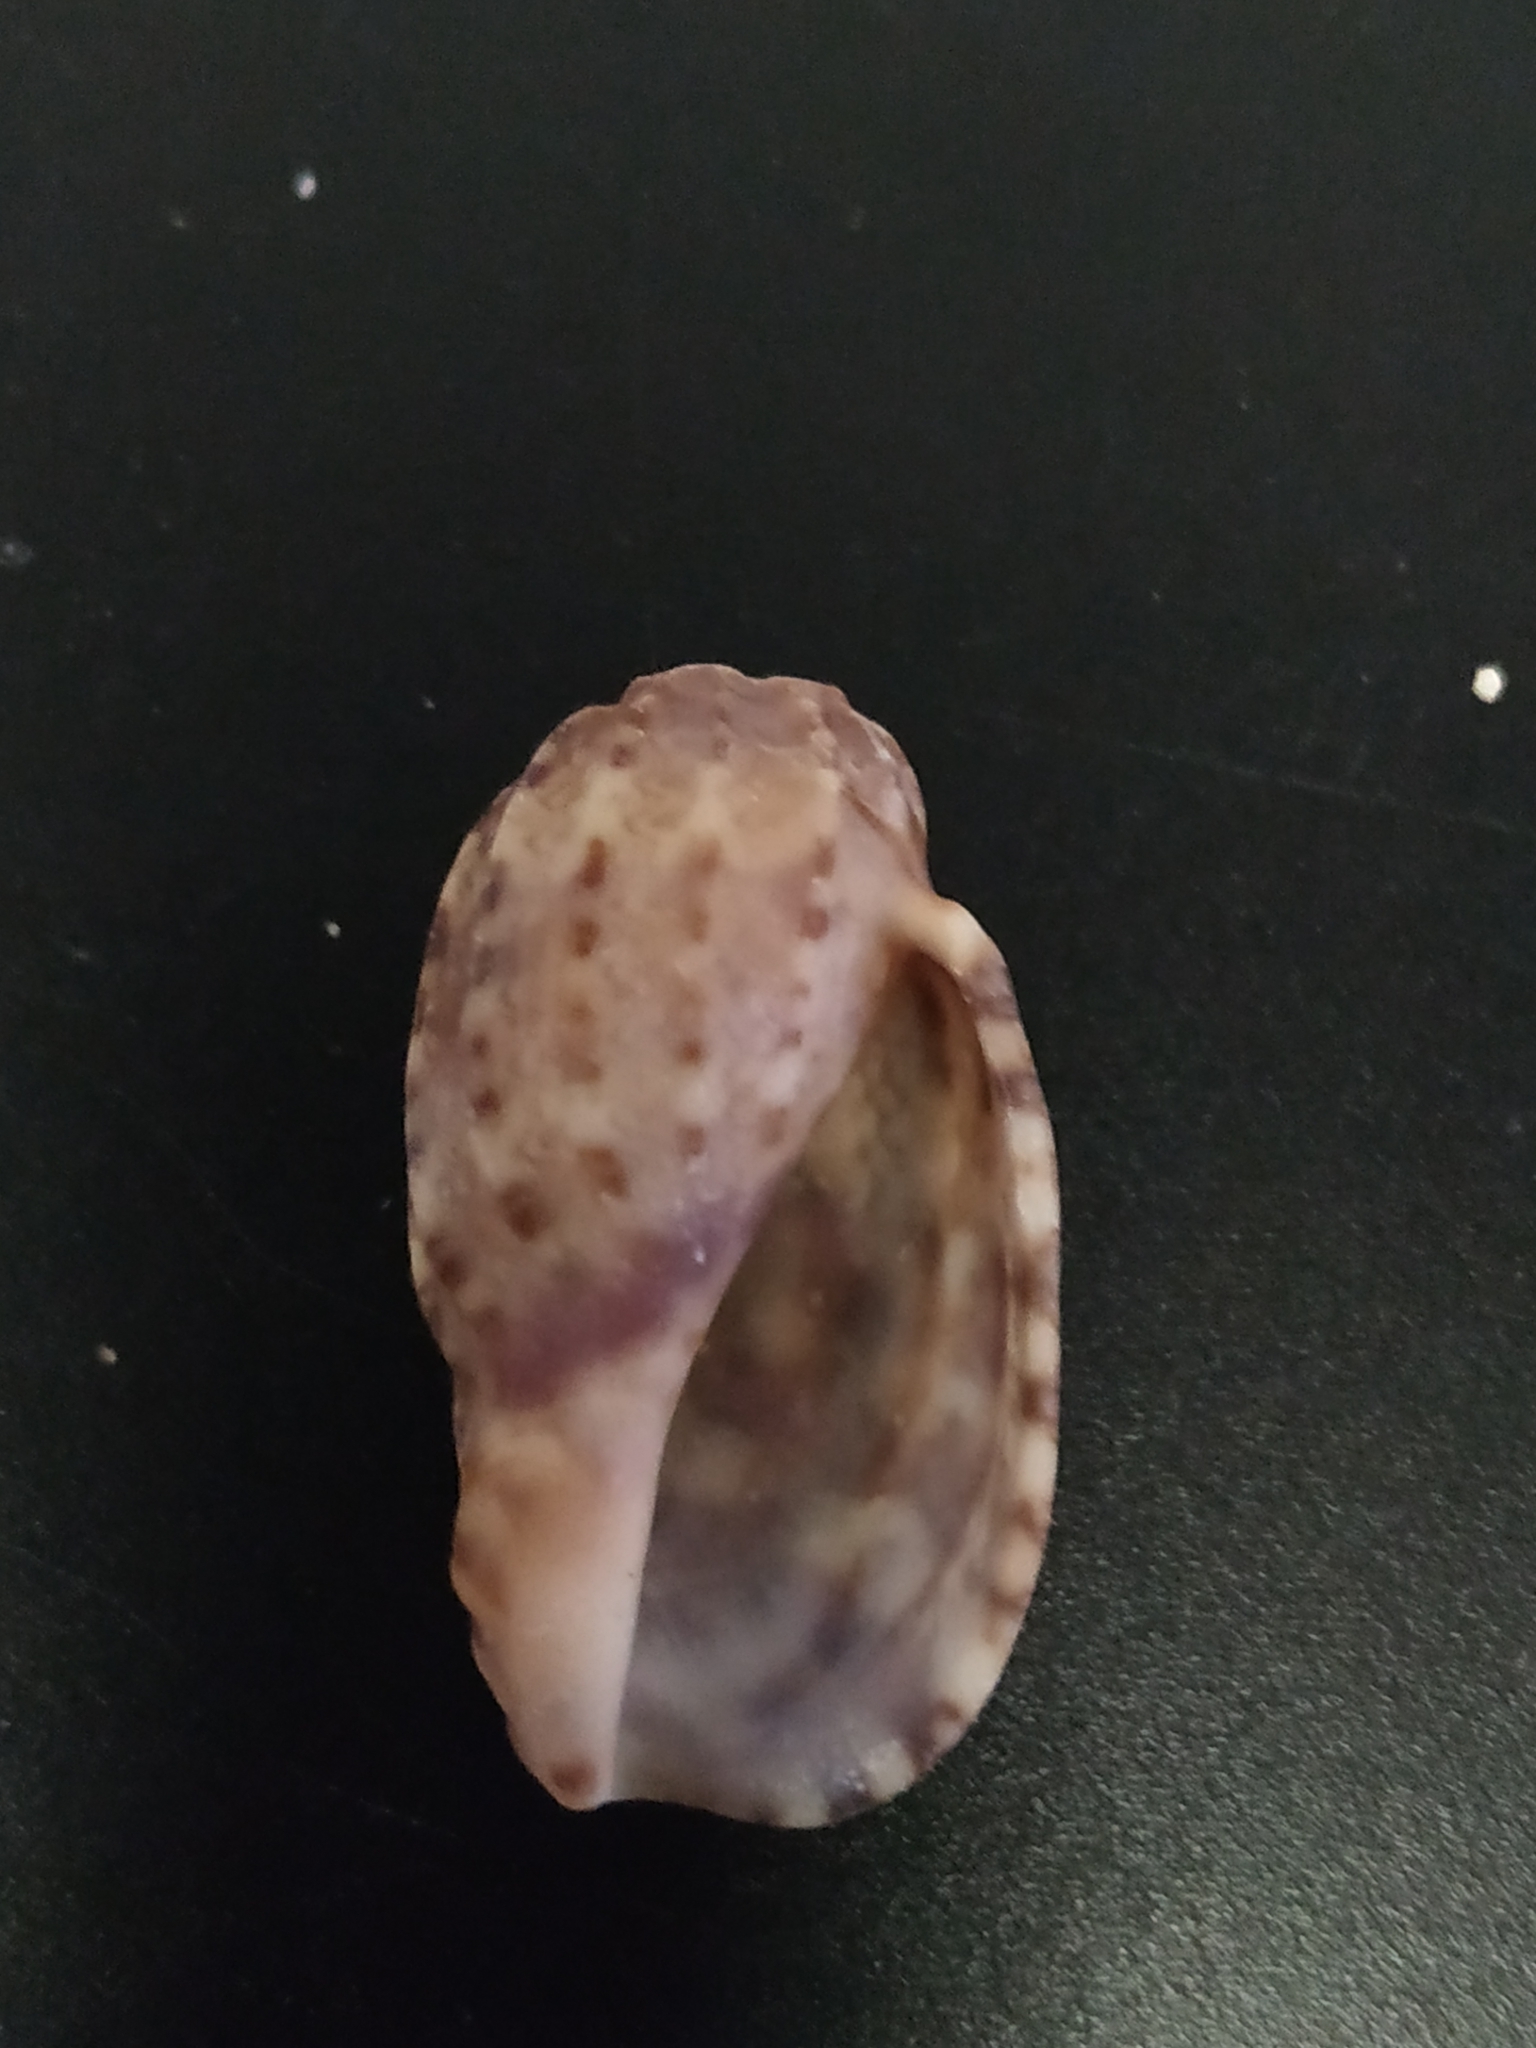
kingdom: Animalia
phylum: Mollusca
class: Gastropoda
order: Neogastropoda
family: Harpidae
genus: Harpa
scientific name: Harpa amouretta
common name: Lesser harp
